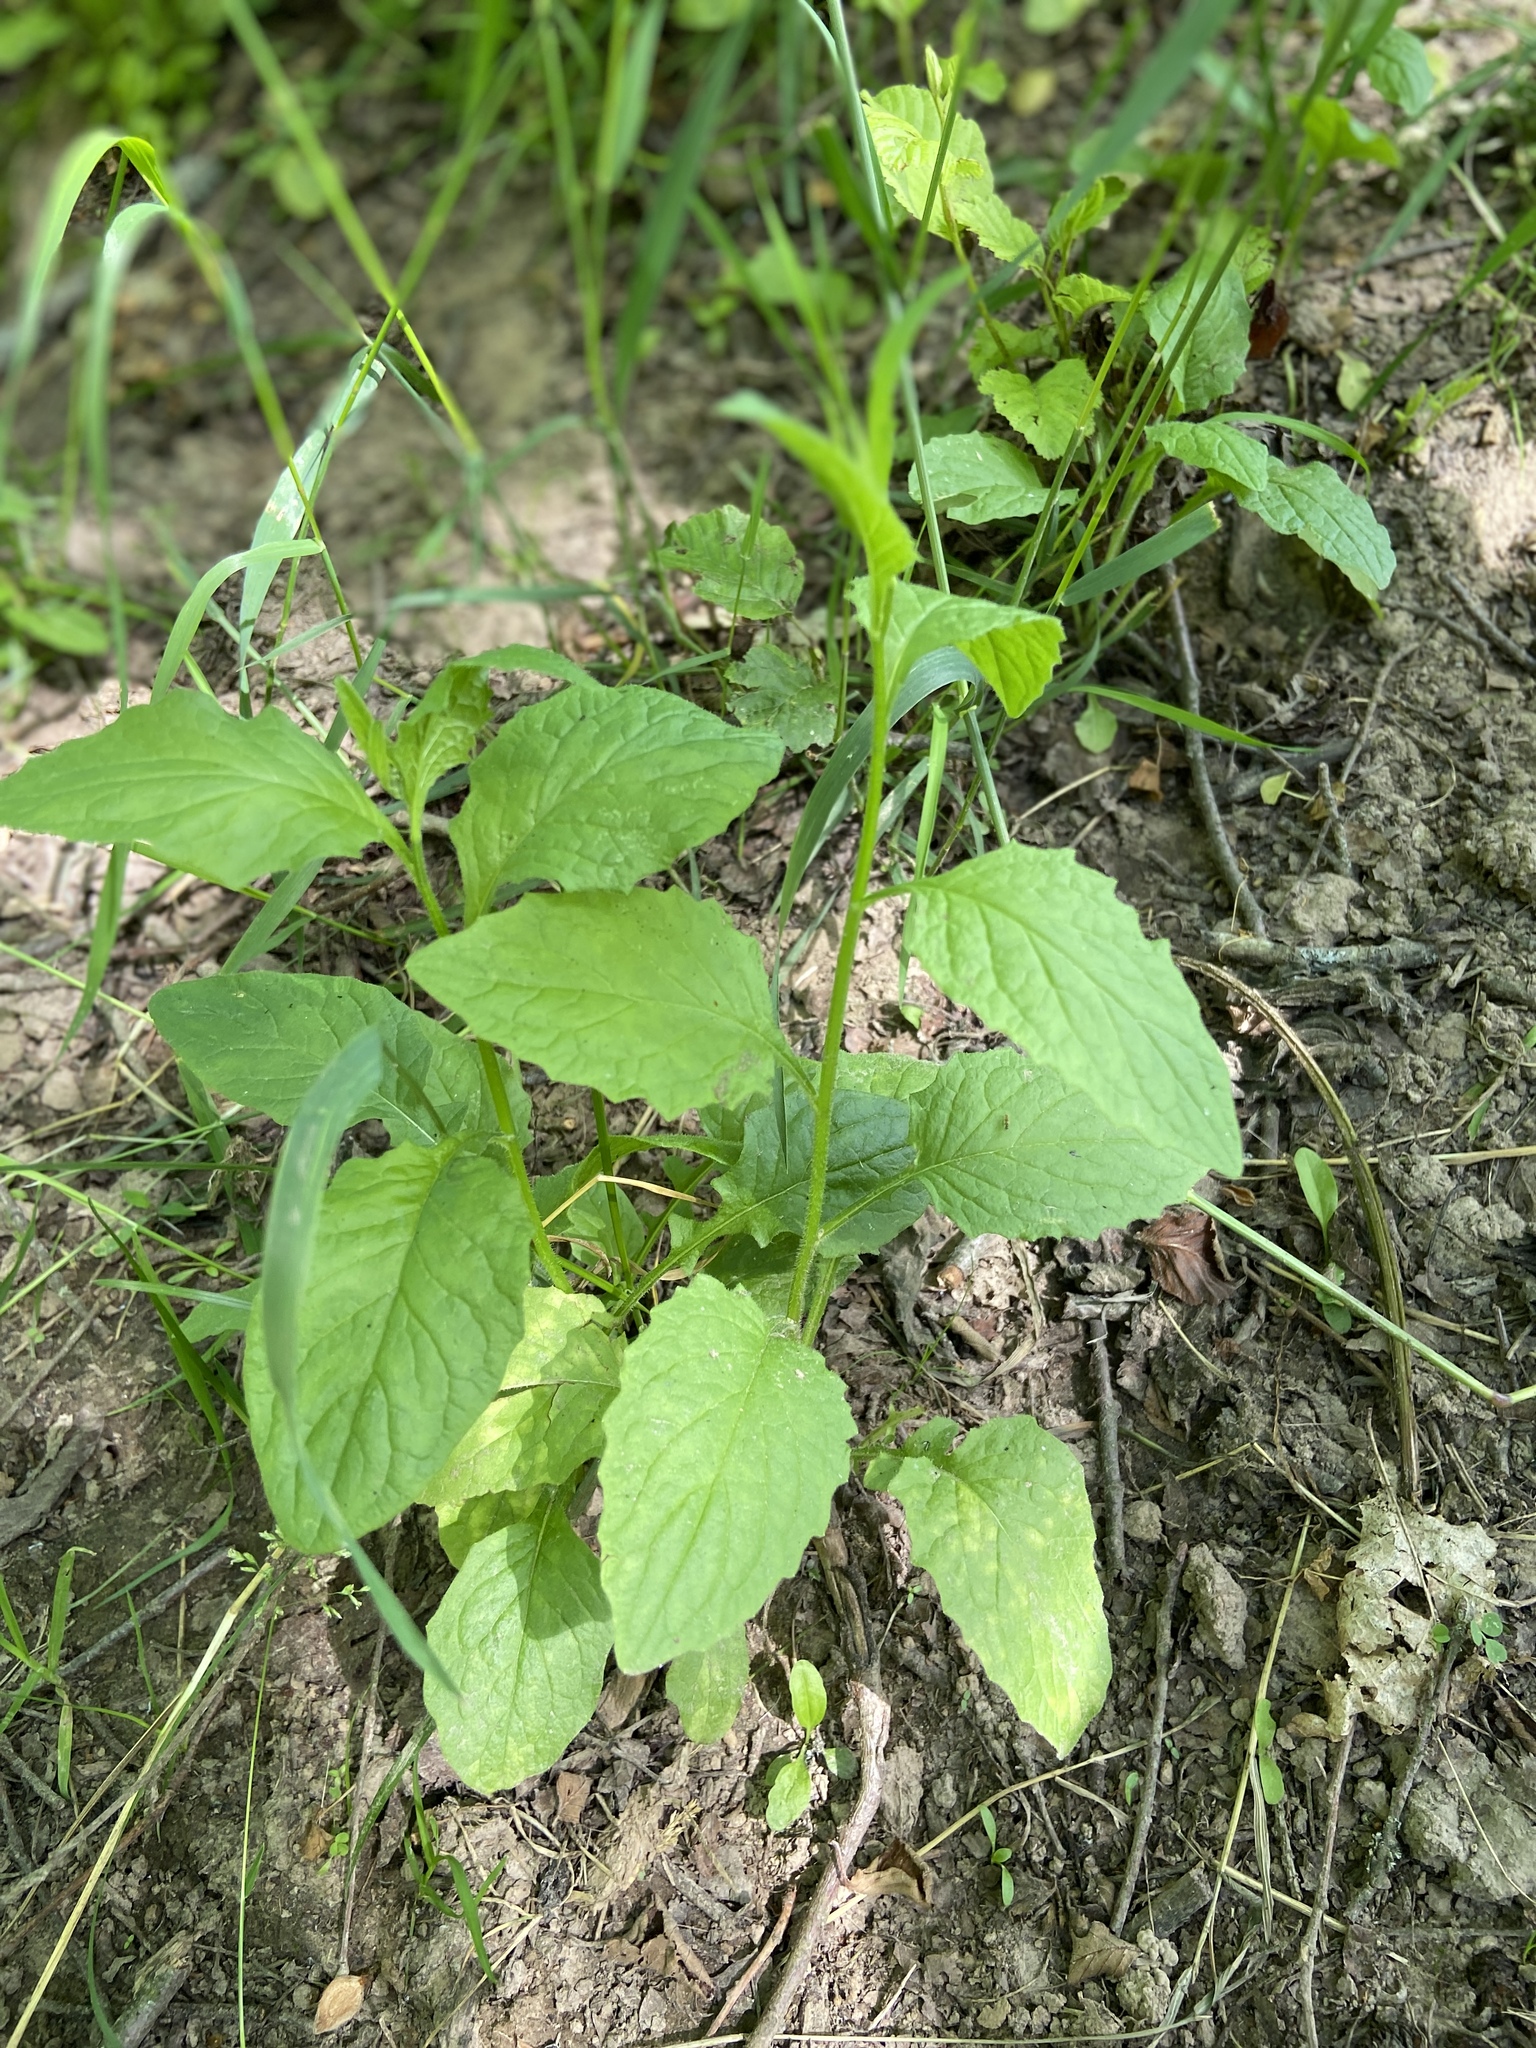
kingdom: Plantae
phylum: Tracheophyta
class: Magnoliopsida
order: Asterales
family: Asteraceae
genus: Lapsana
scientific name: Lapsana communis
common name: Nipplewort
